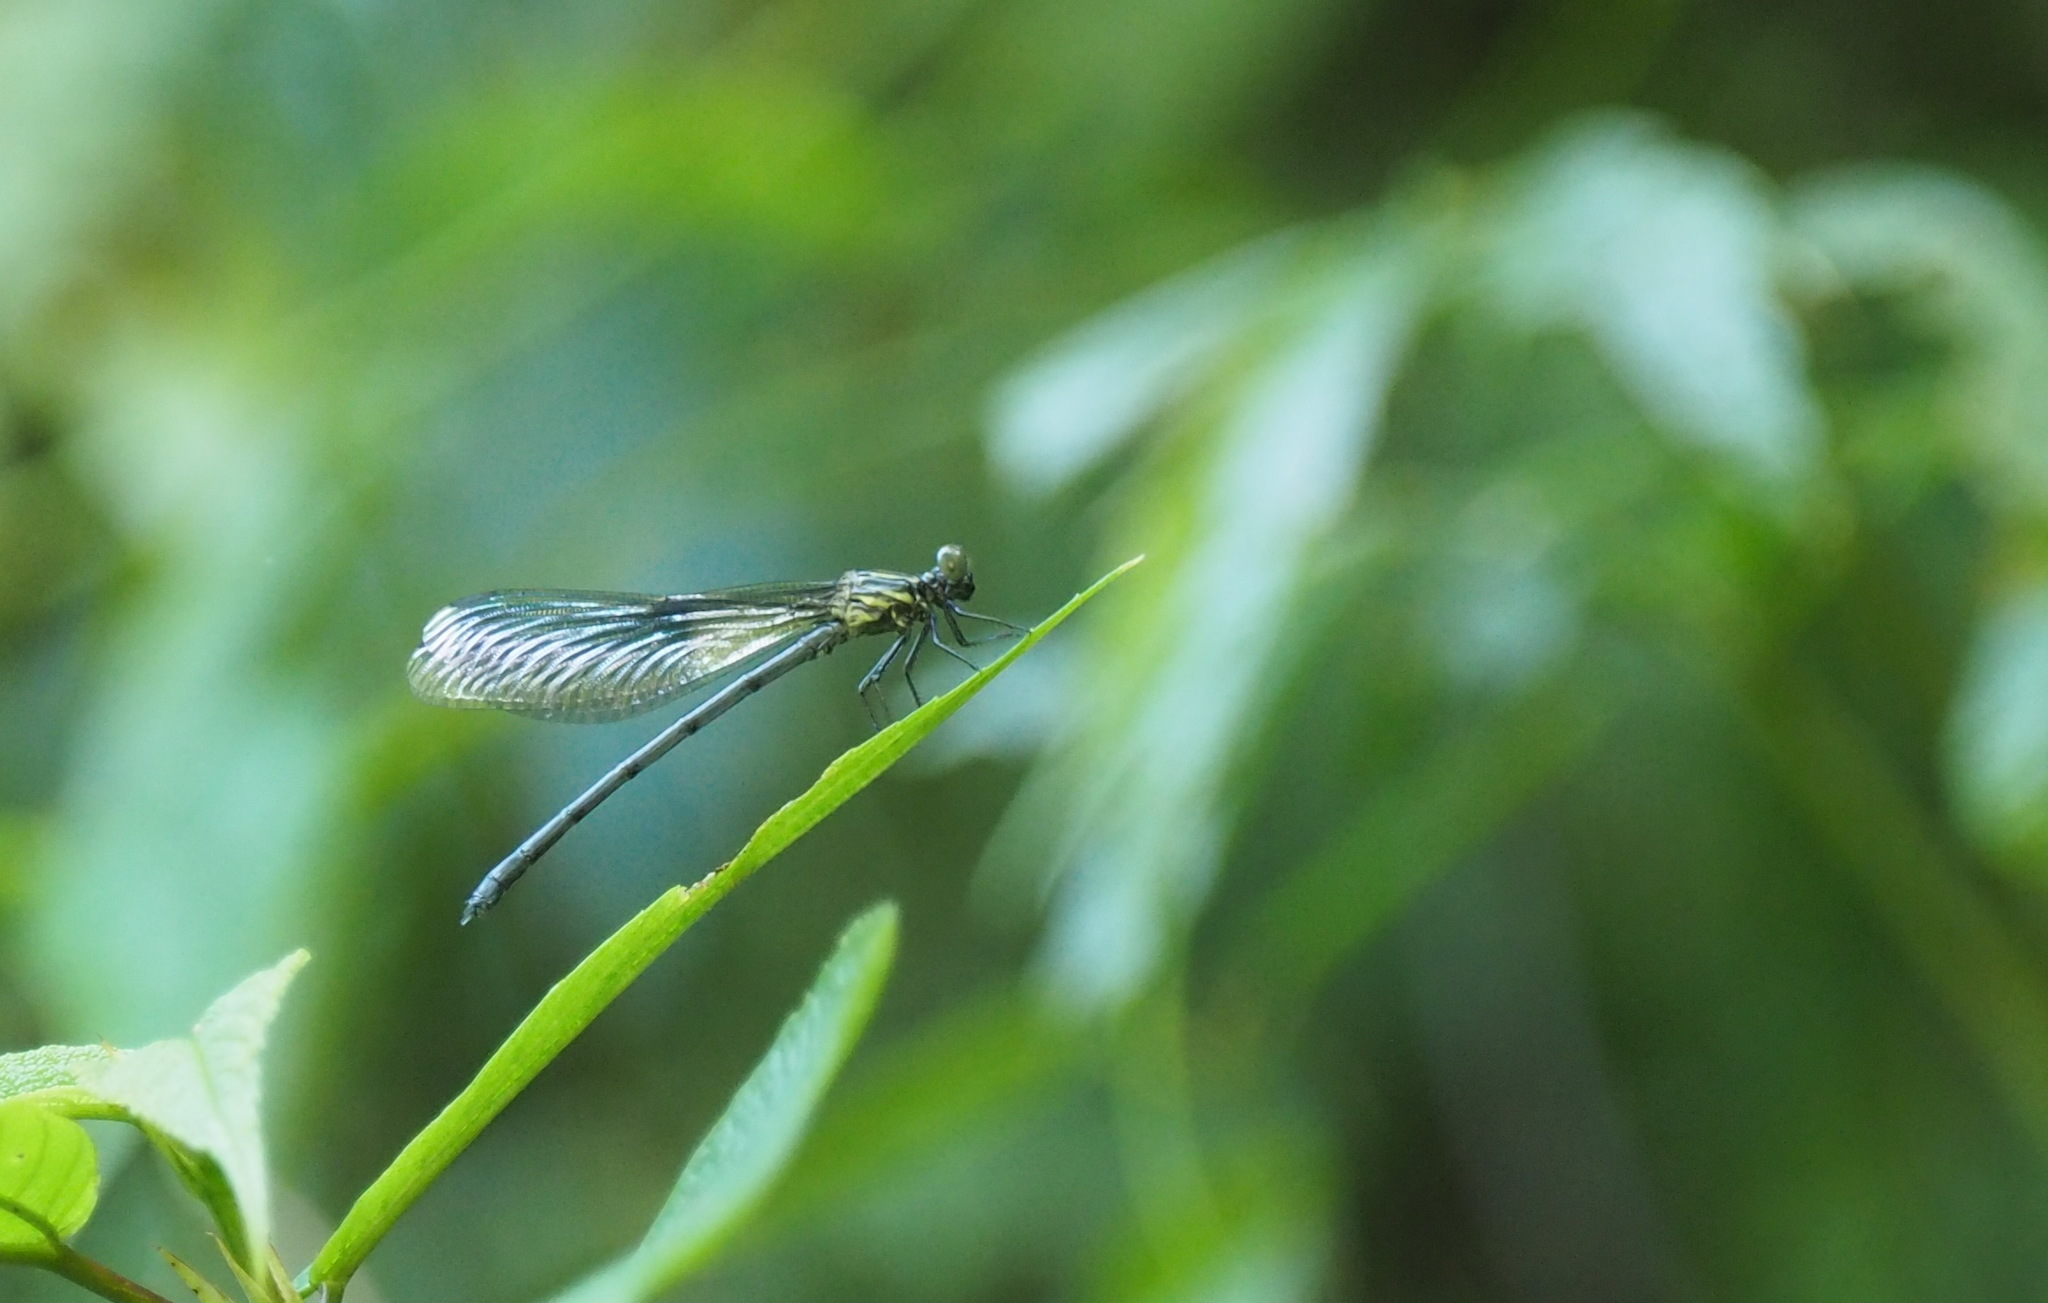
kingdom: Animalia
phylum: Arthropoda
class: Insecta
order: Odonata
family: Euphaeidae
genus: Euphaea
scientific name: Euphaea formosa
